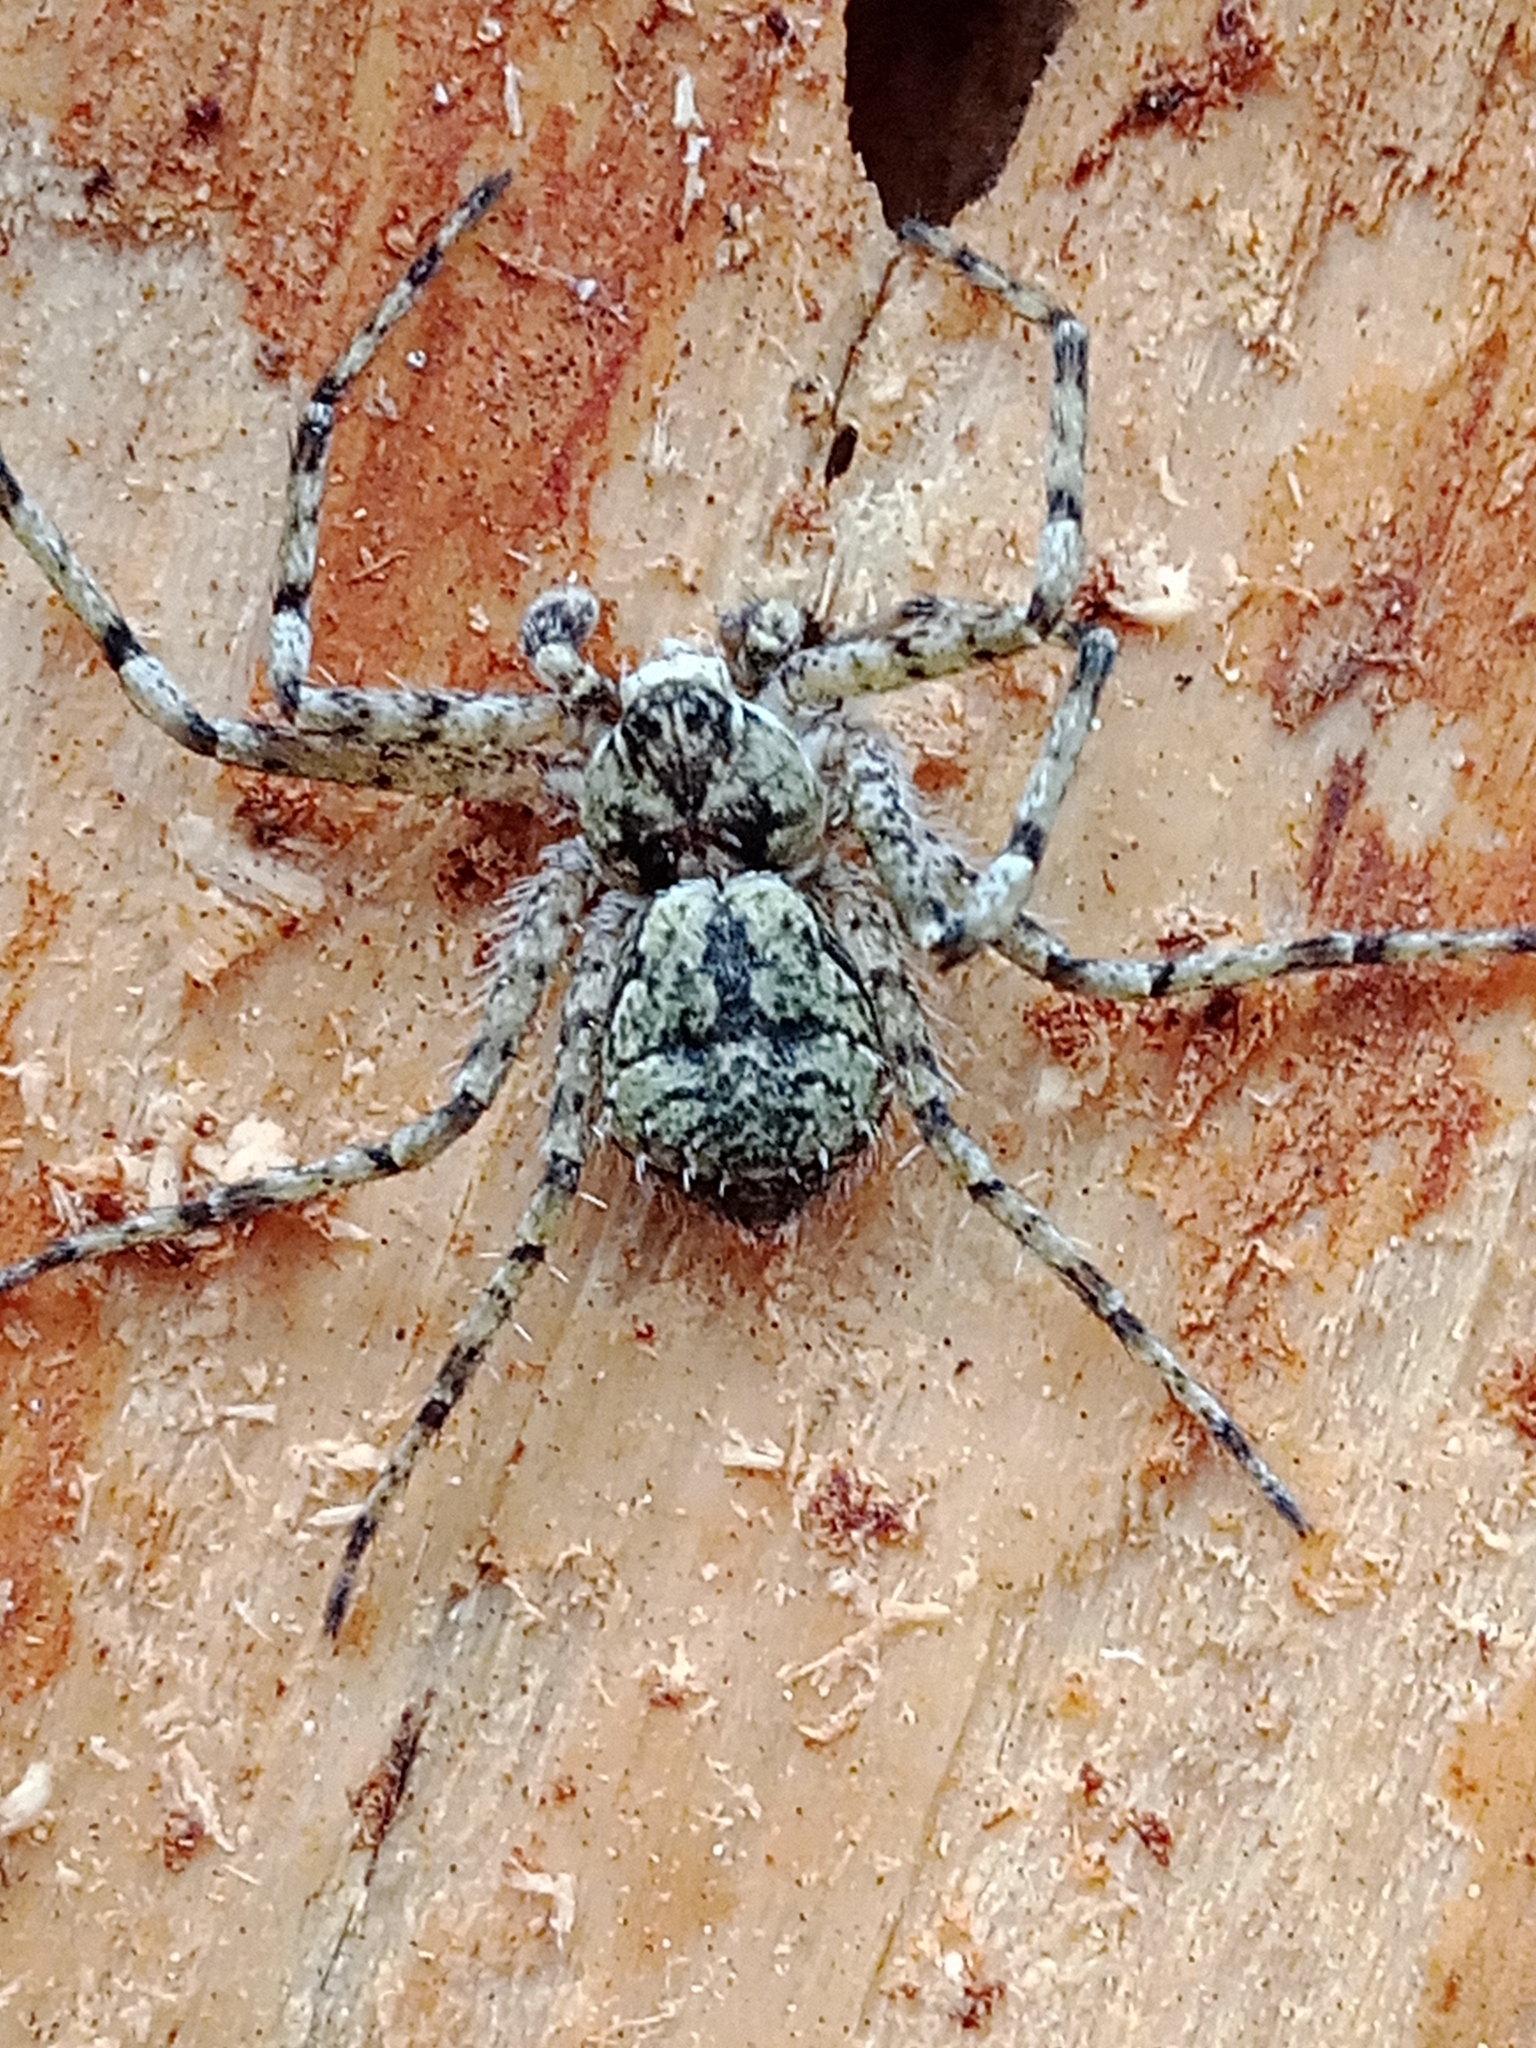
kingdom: Animalia
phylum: Arthropoda
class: Arachnida
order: Araneae
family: Philodromidae
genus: Philodromus
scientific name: Philodromus margaritatus
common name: Lichen running-spider
